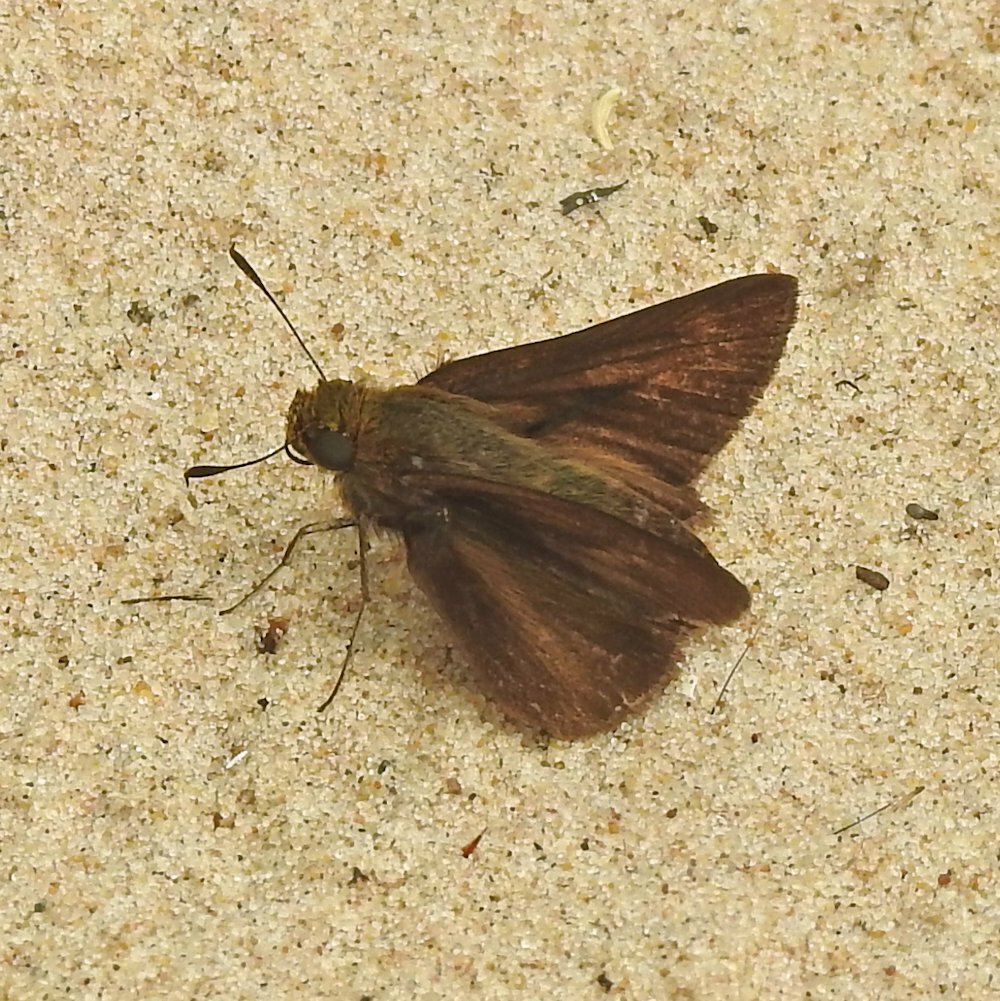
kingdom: Animalia
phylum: Arthropoda
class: Insecta
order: Lepidoptera
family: Hesperiidae
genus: Euphyes
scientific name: Euphyes vestris
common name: Dun skipper
